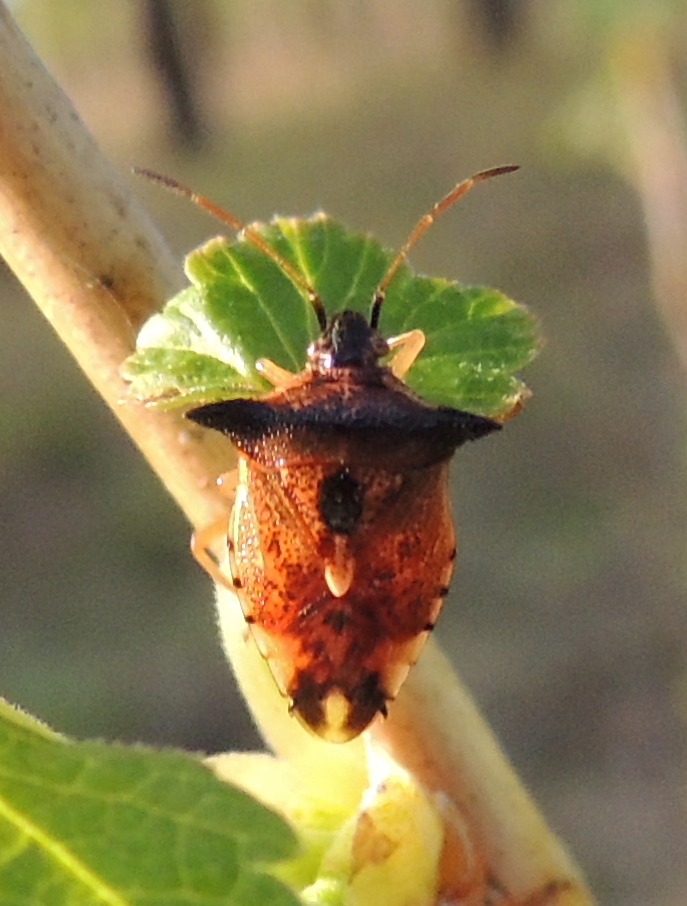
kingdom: Animalia
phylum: Arthropoda
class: Insecta
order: Hemiptera
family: Acanthosomatidae
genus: Elasmucha
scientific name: Elasmucha ferrugata
